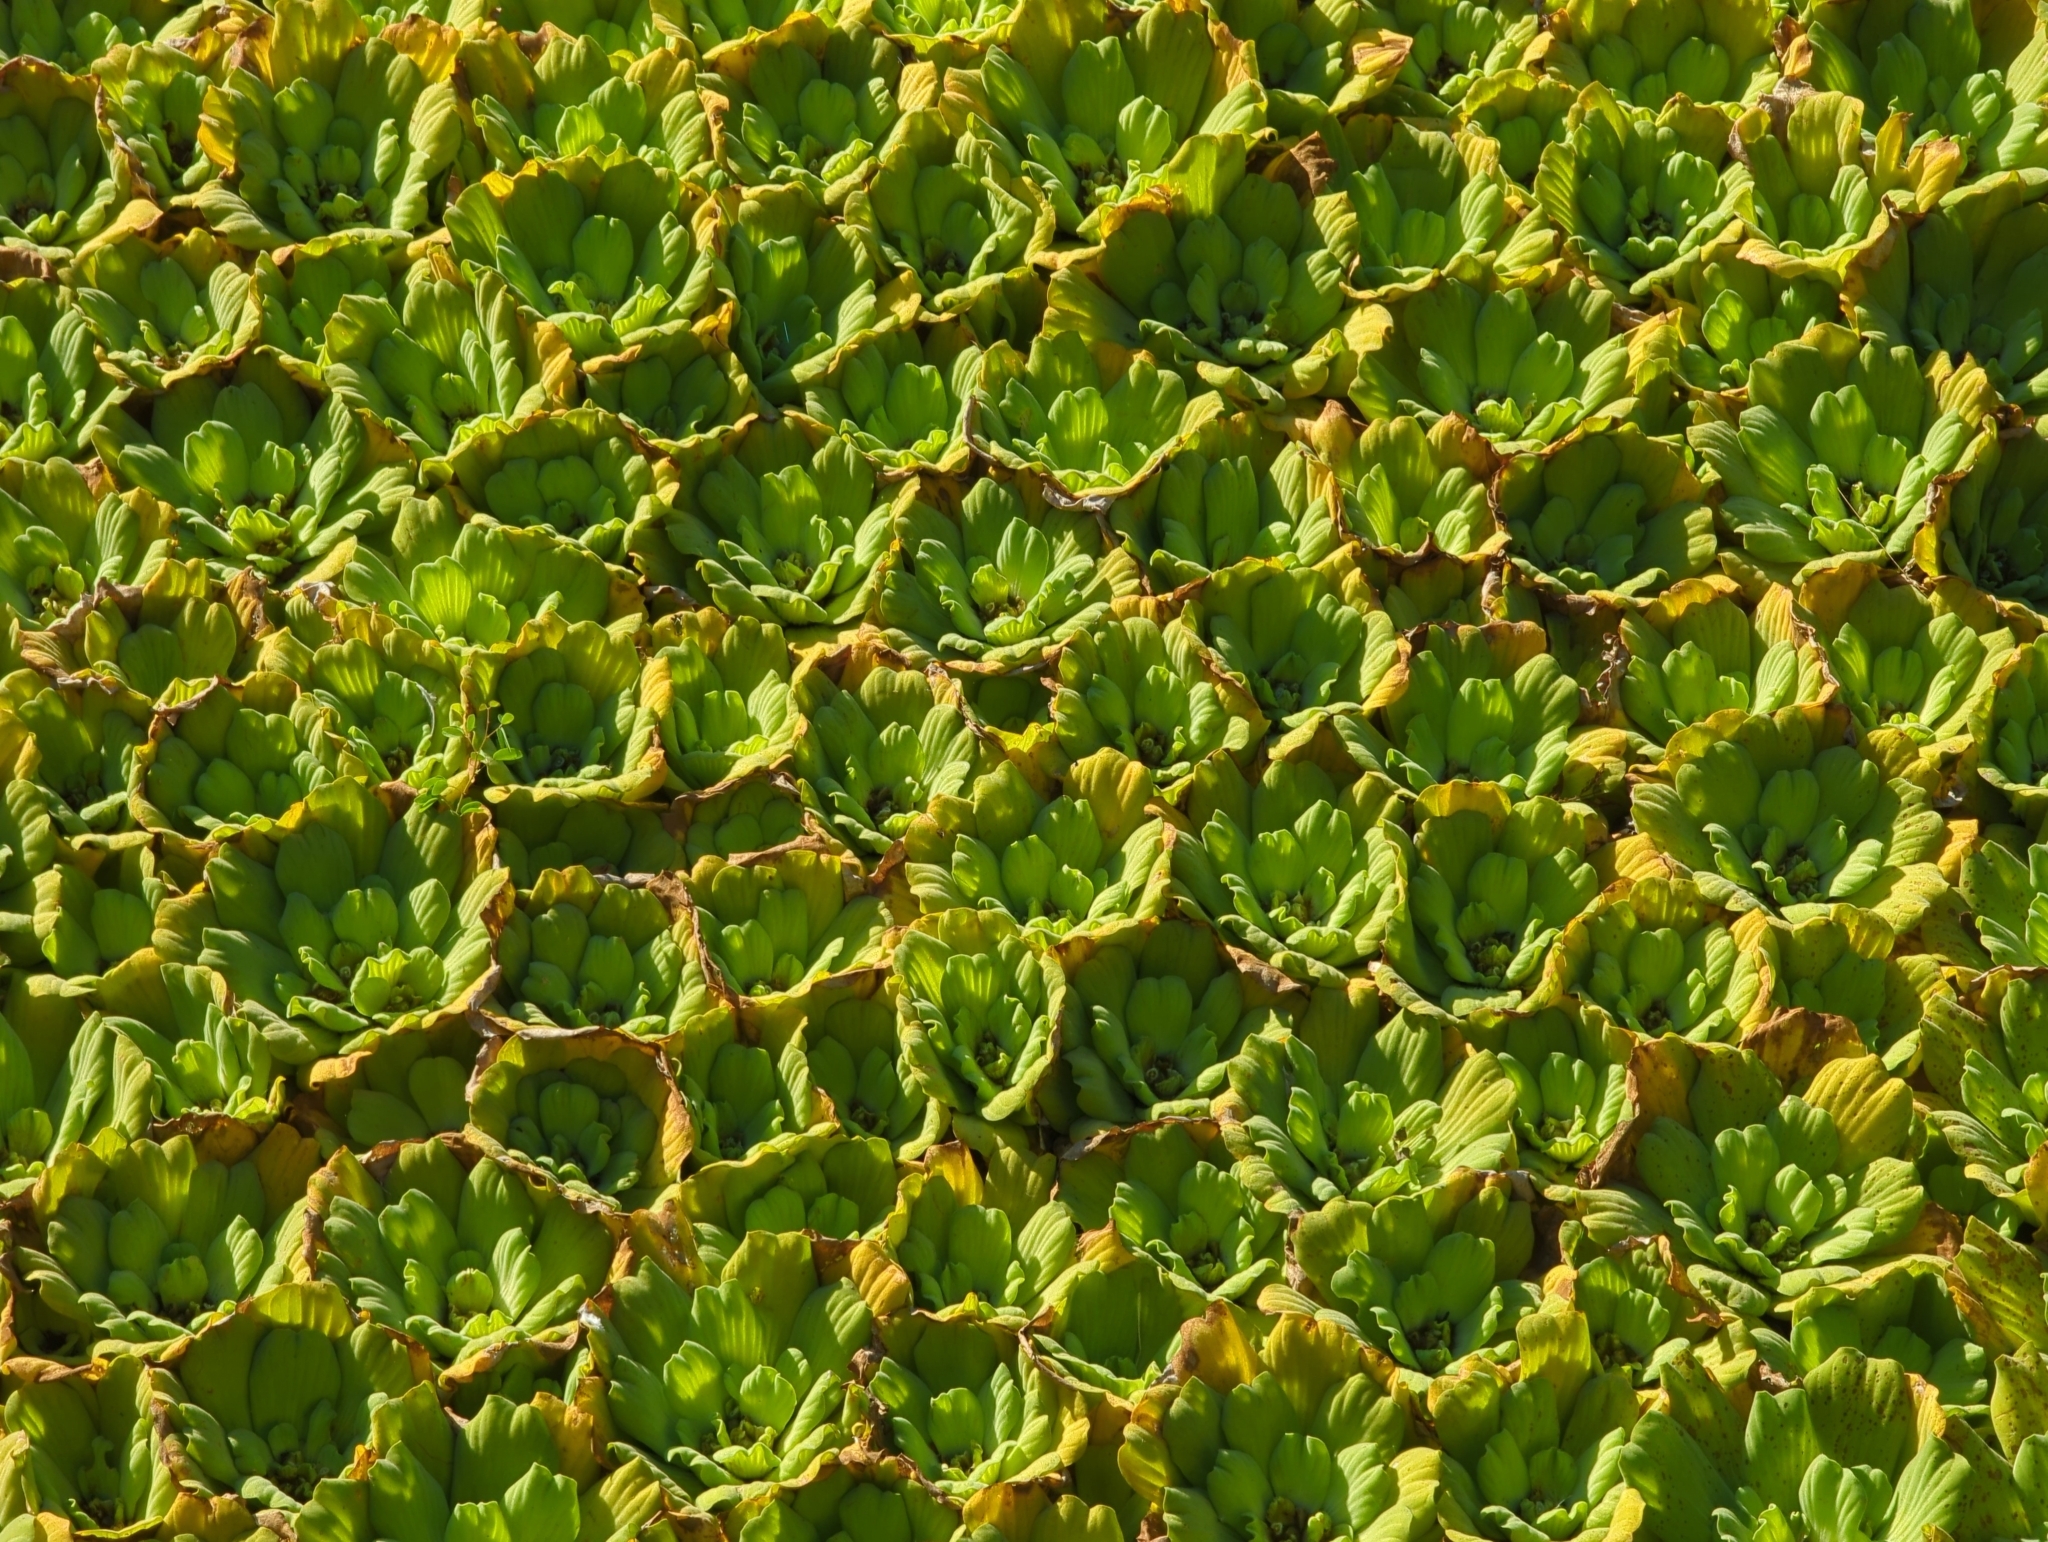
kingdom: Plantae
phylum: Tracheophyta
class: Liliopsida
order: Alismatales
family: Araceae
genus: Pistia
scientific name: Pistia stratiotes
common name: Water lettuce
